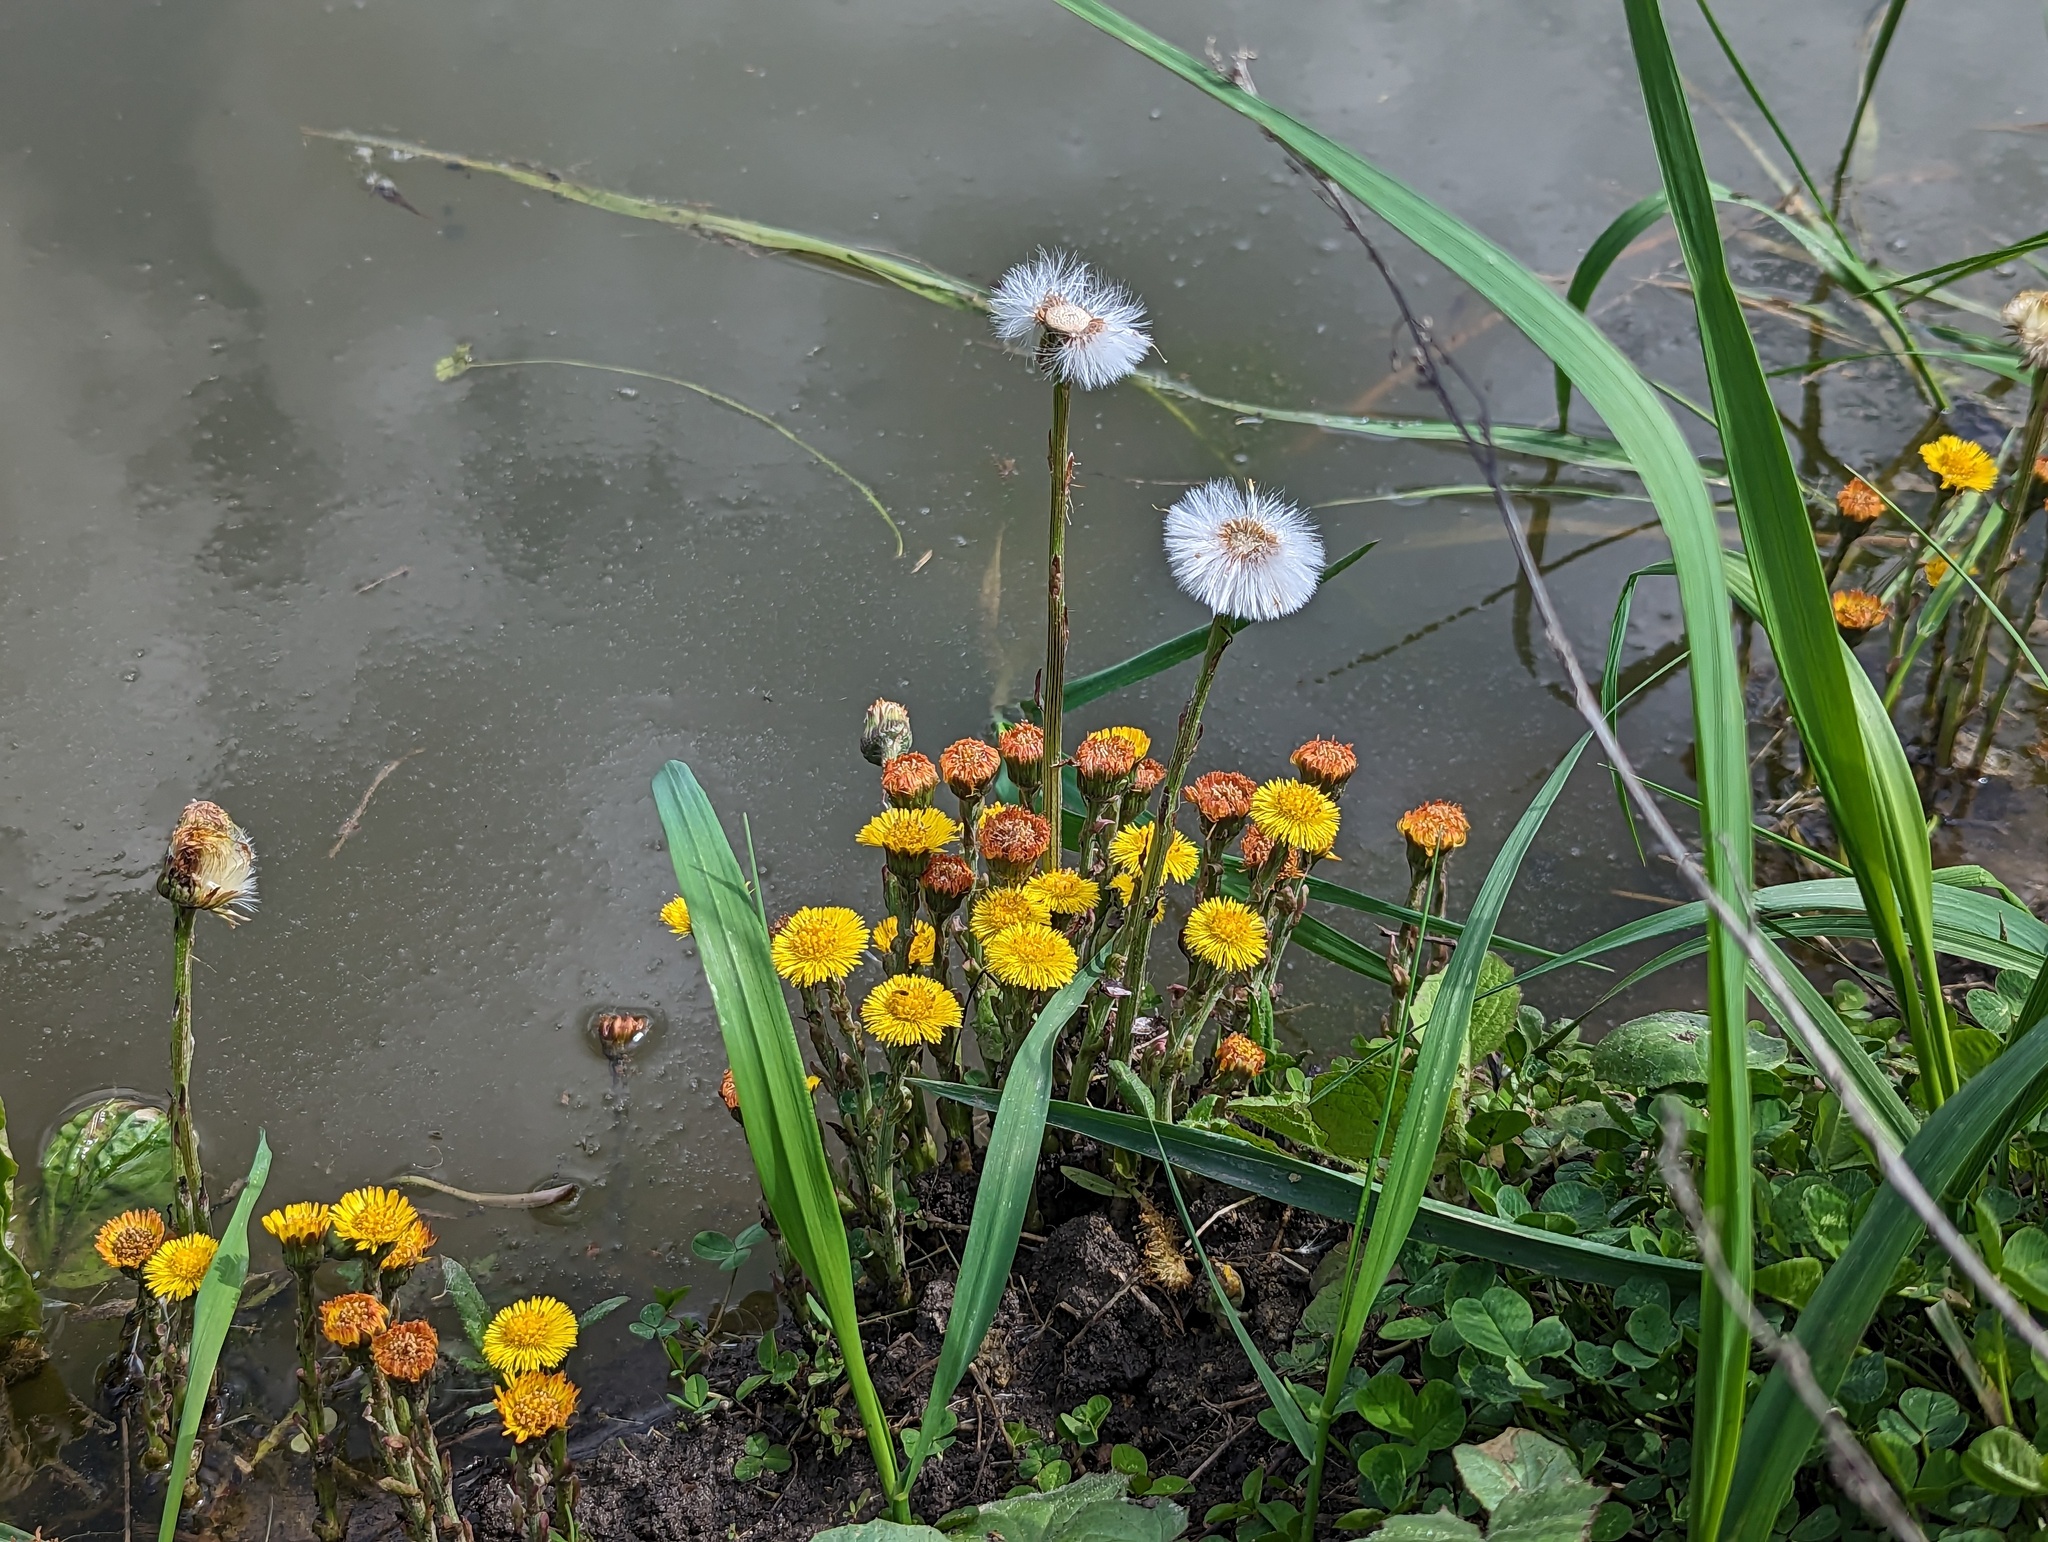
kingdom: Plantae
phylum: Tracheophyta
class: Magnoliopsida
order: Asterales
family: Asteraceae
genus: Tussilago
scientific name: Tussilago farfara
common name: Coltsfoot
